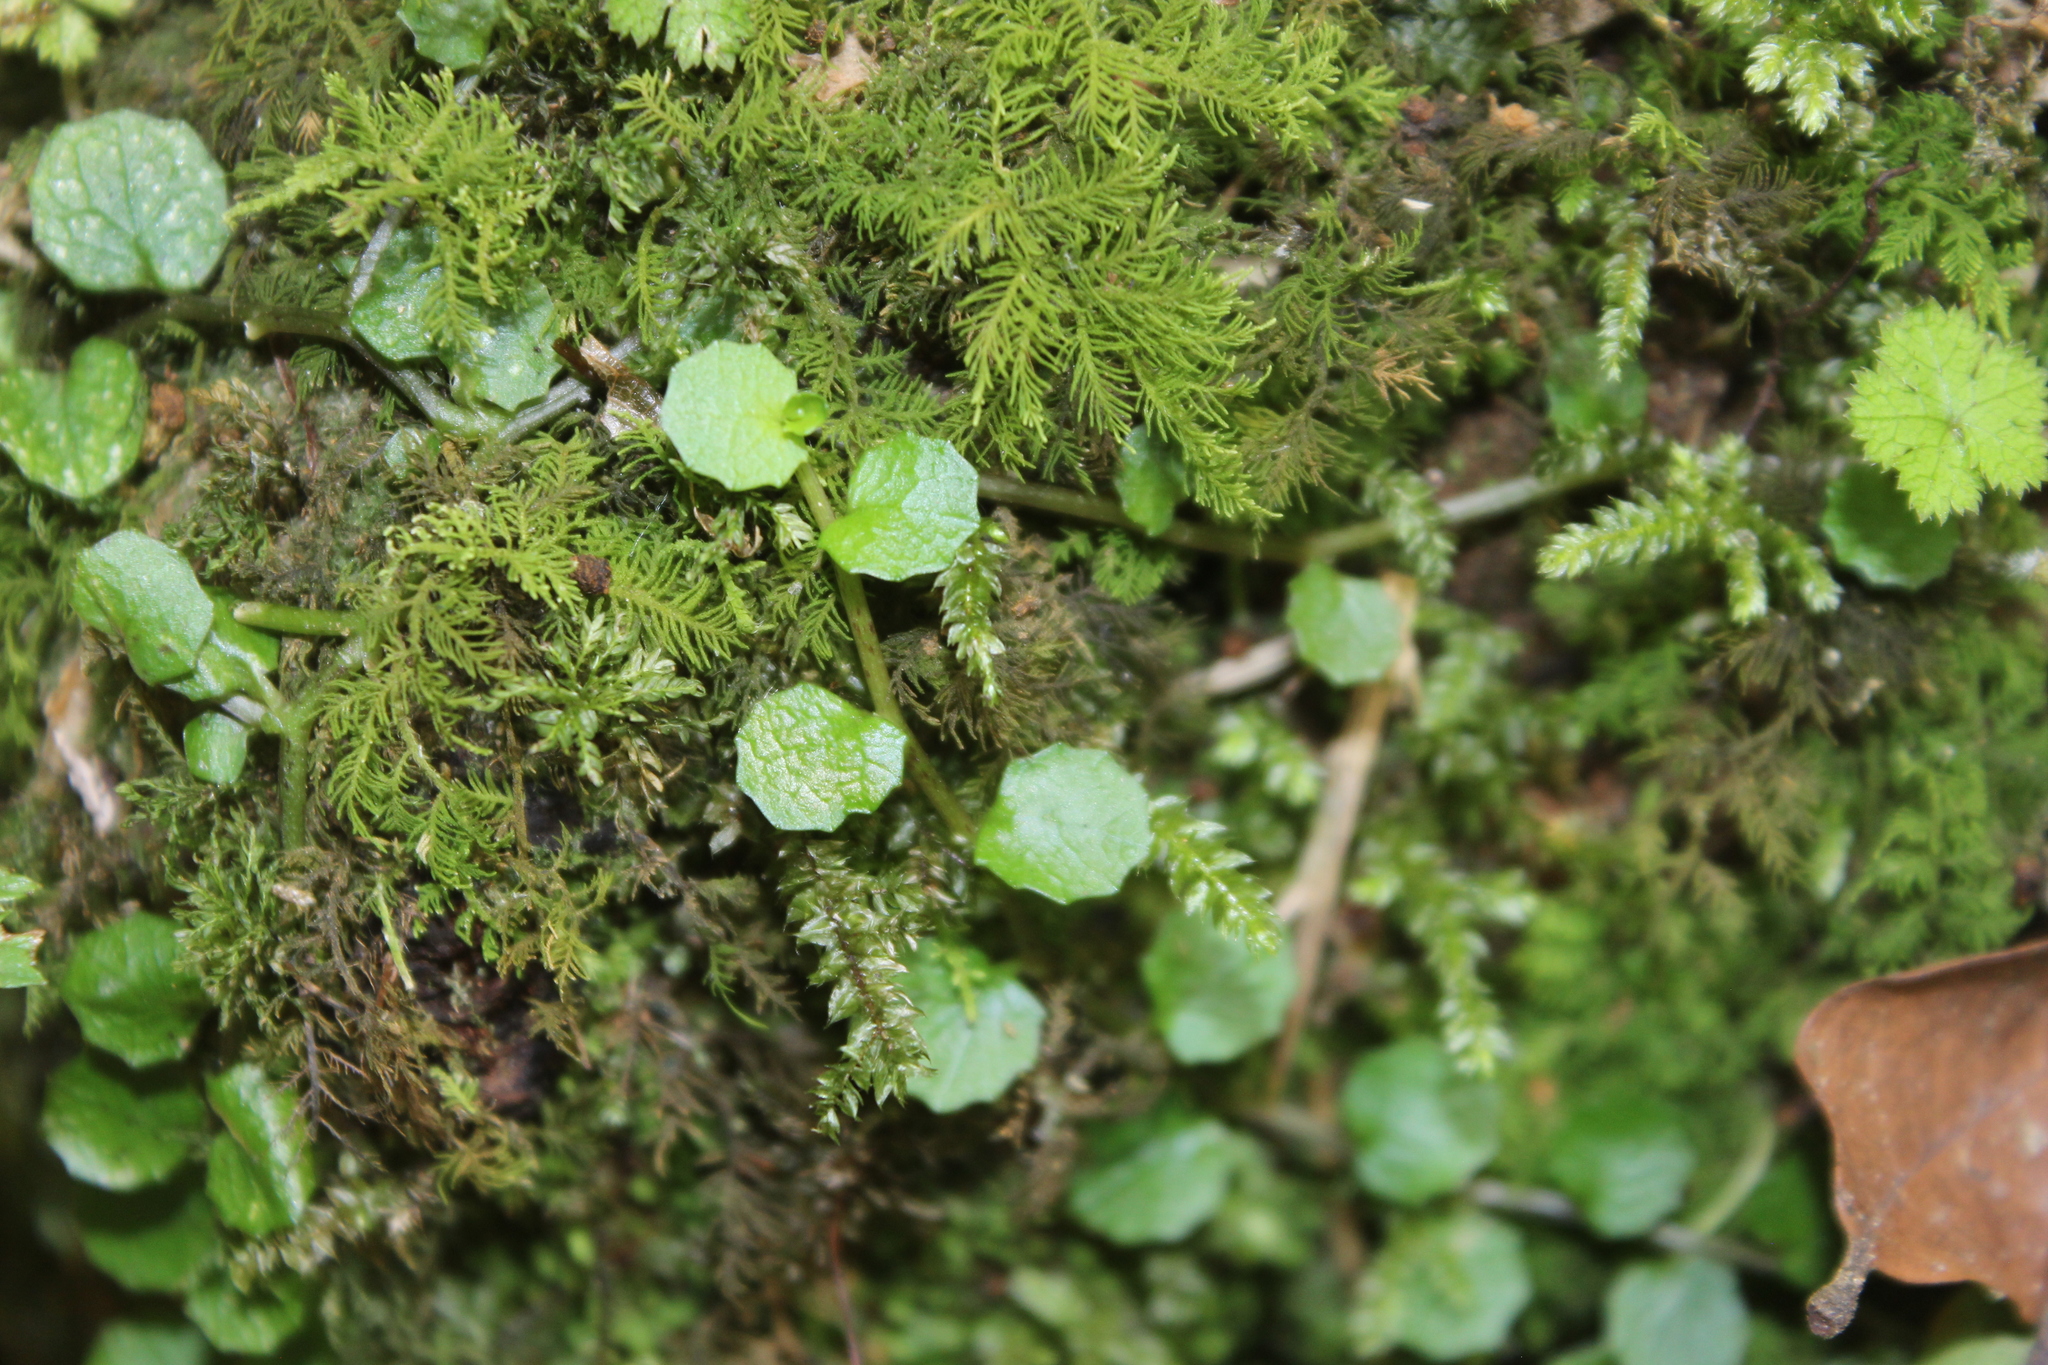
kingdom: Plantae
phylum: Tracheophyta
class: Magnoliopsida
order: Asterales
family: Campanulaceae
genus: Lobelia
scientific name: Lobelia angulata
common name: Lawn lobelia
